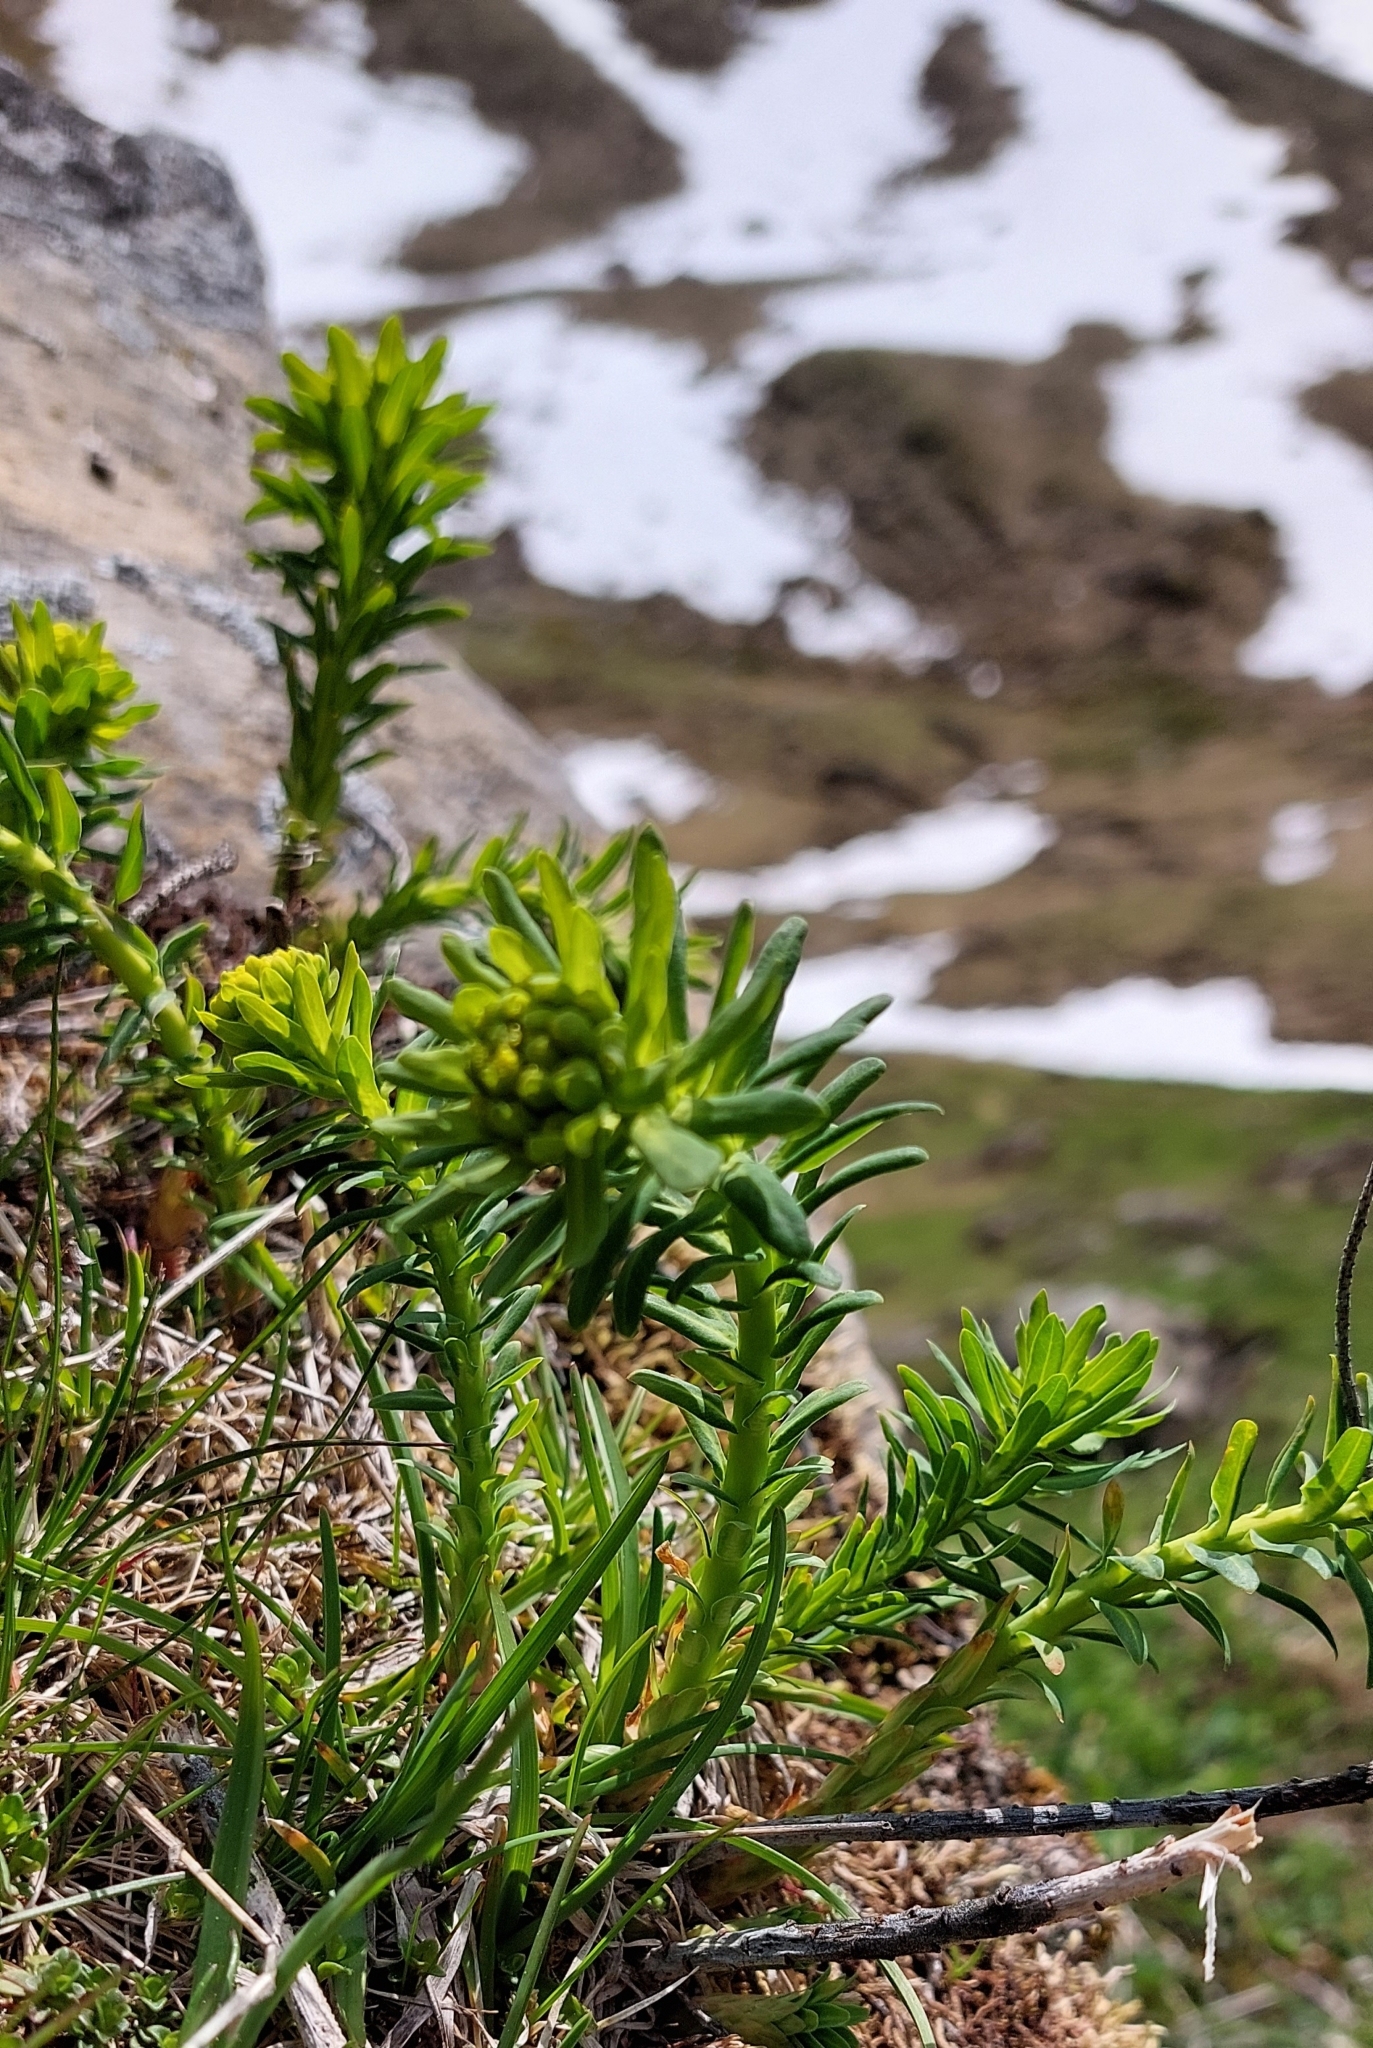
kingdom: Plantae
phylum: Tracheophyta
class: Magnoliopsida
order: Malpighiales
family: Euphorbiaceae
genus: Euphorbia
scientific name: Euphorbia cyparissias
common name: Cypress spurge
